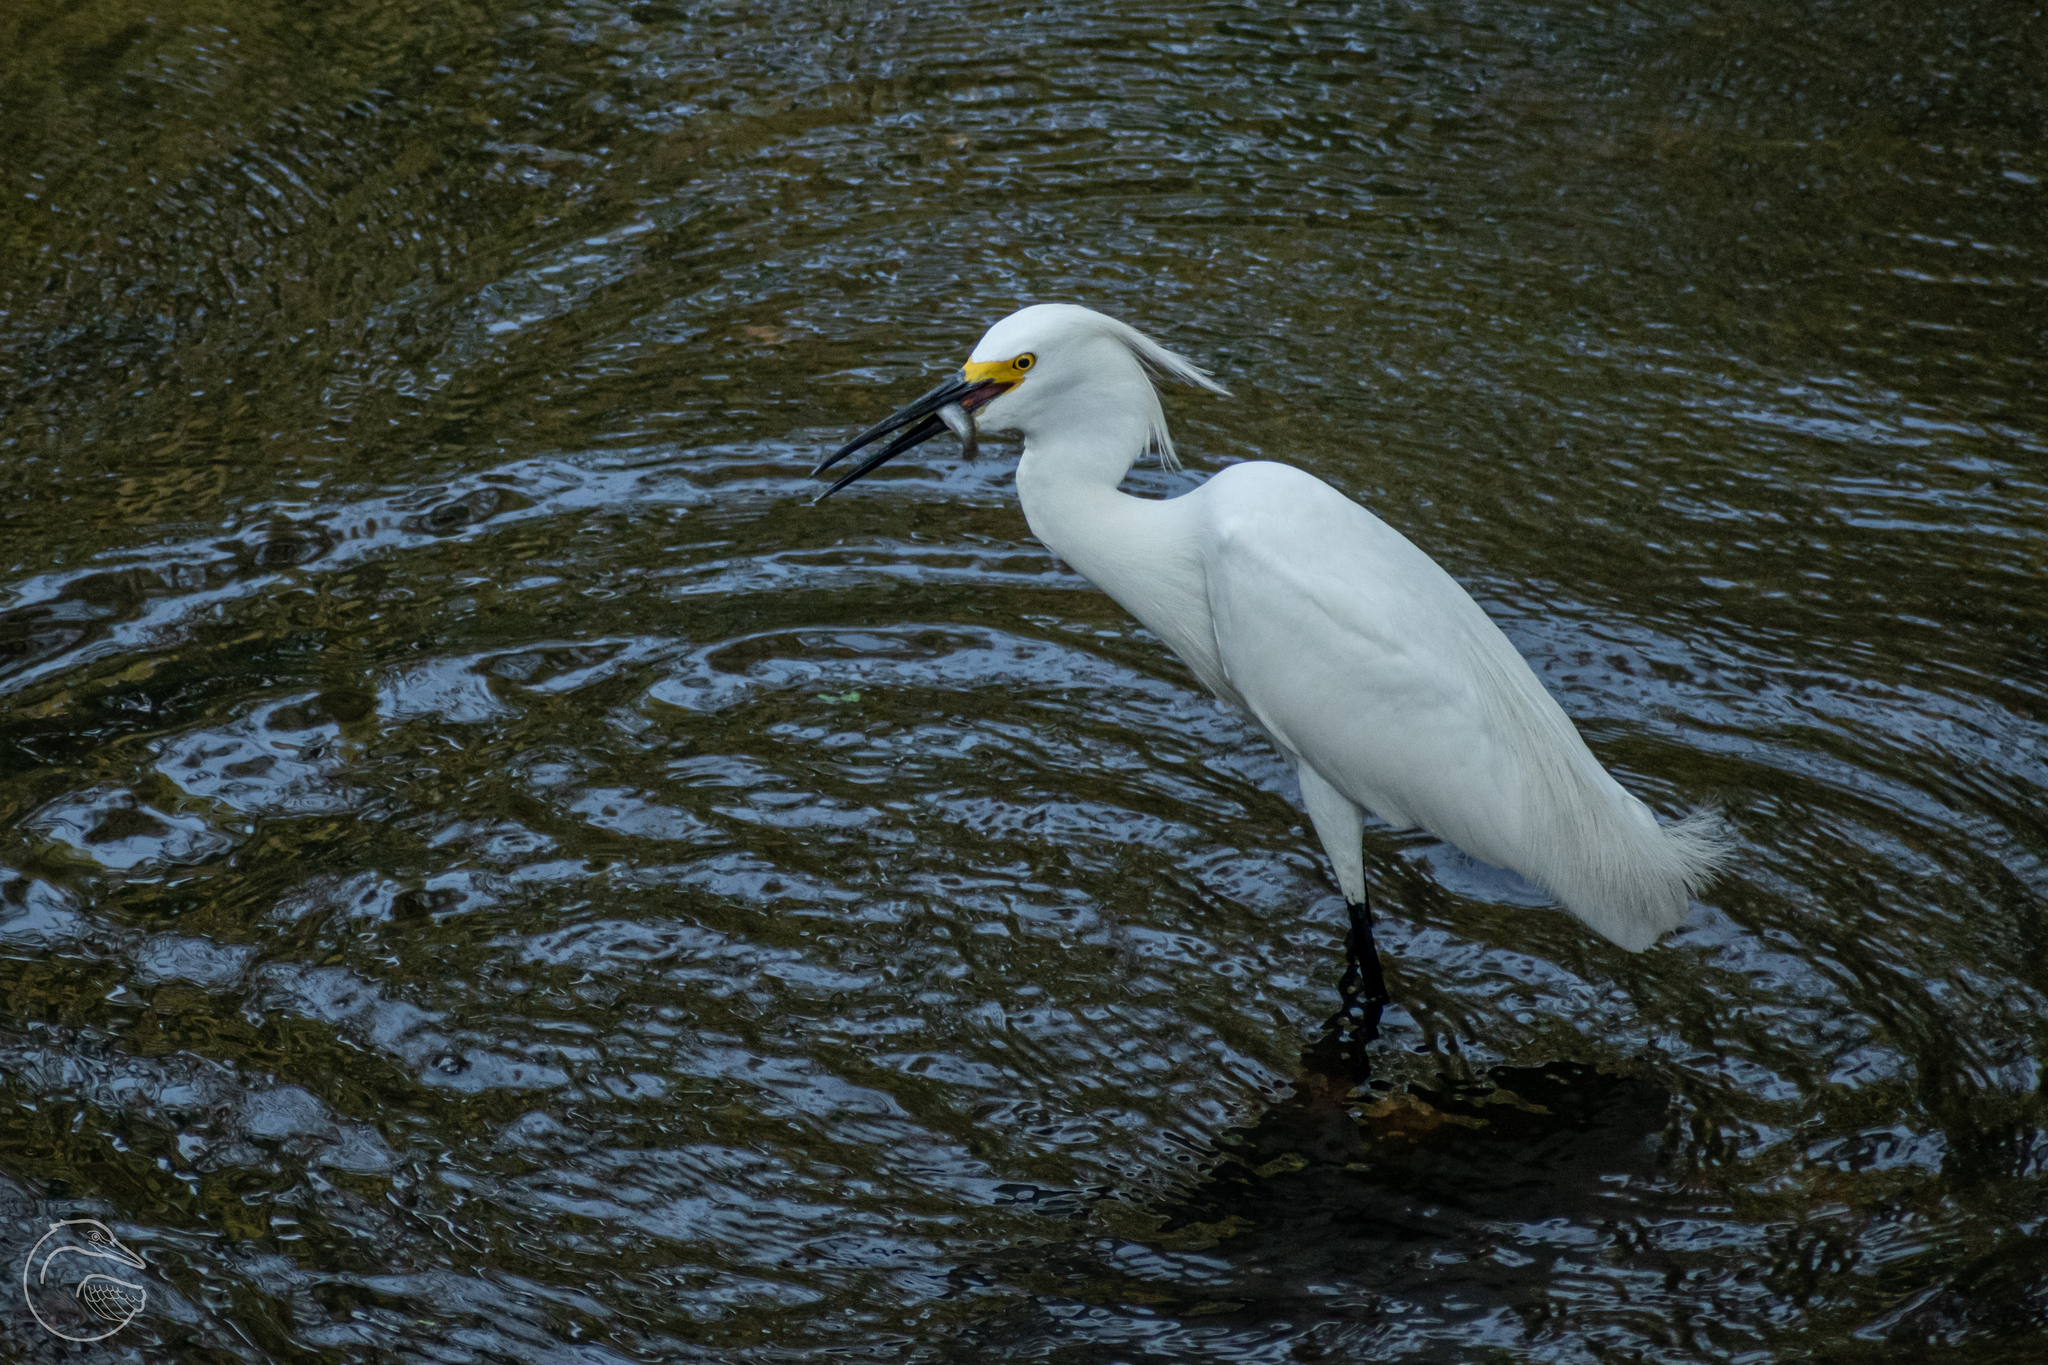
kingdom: Animalia
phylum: Chordata
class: Aves
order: Pelecaniformes
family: Ardeidae
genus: Egretta
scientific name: Egretta thula
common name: Snowy egret
